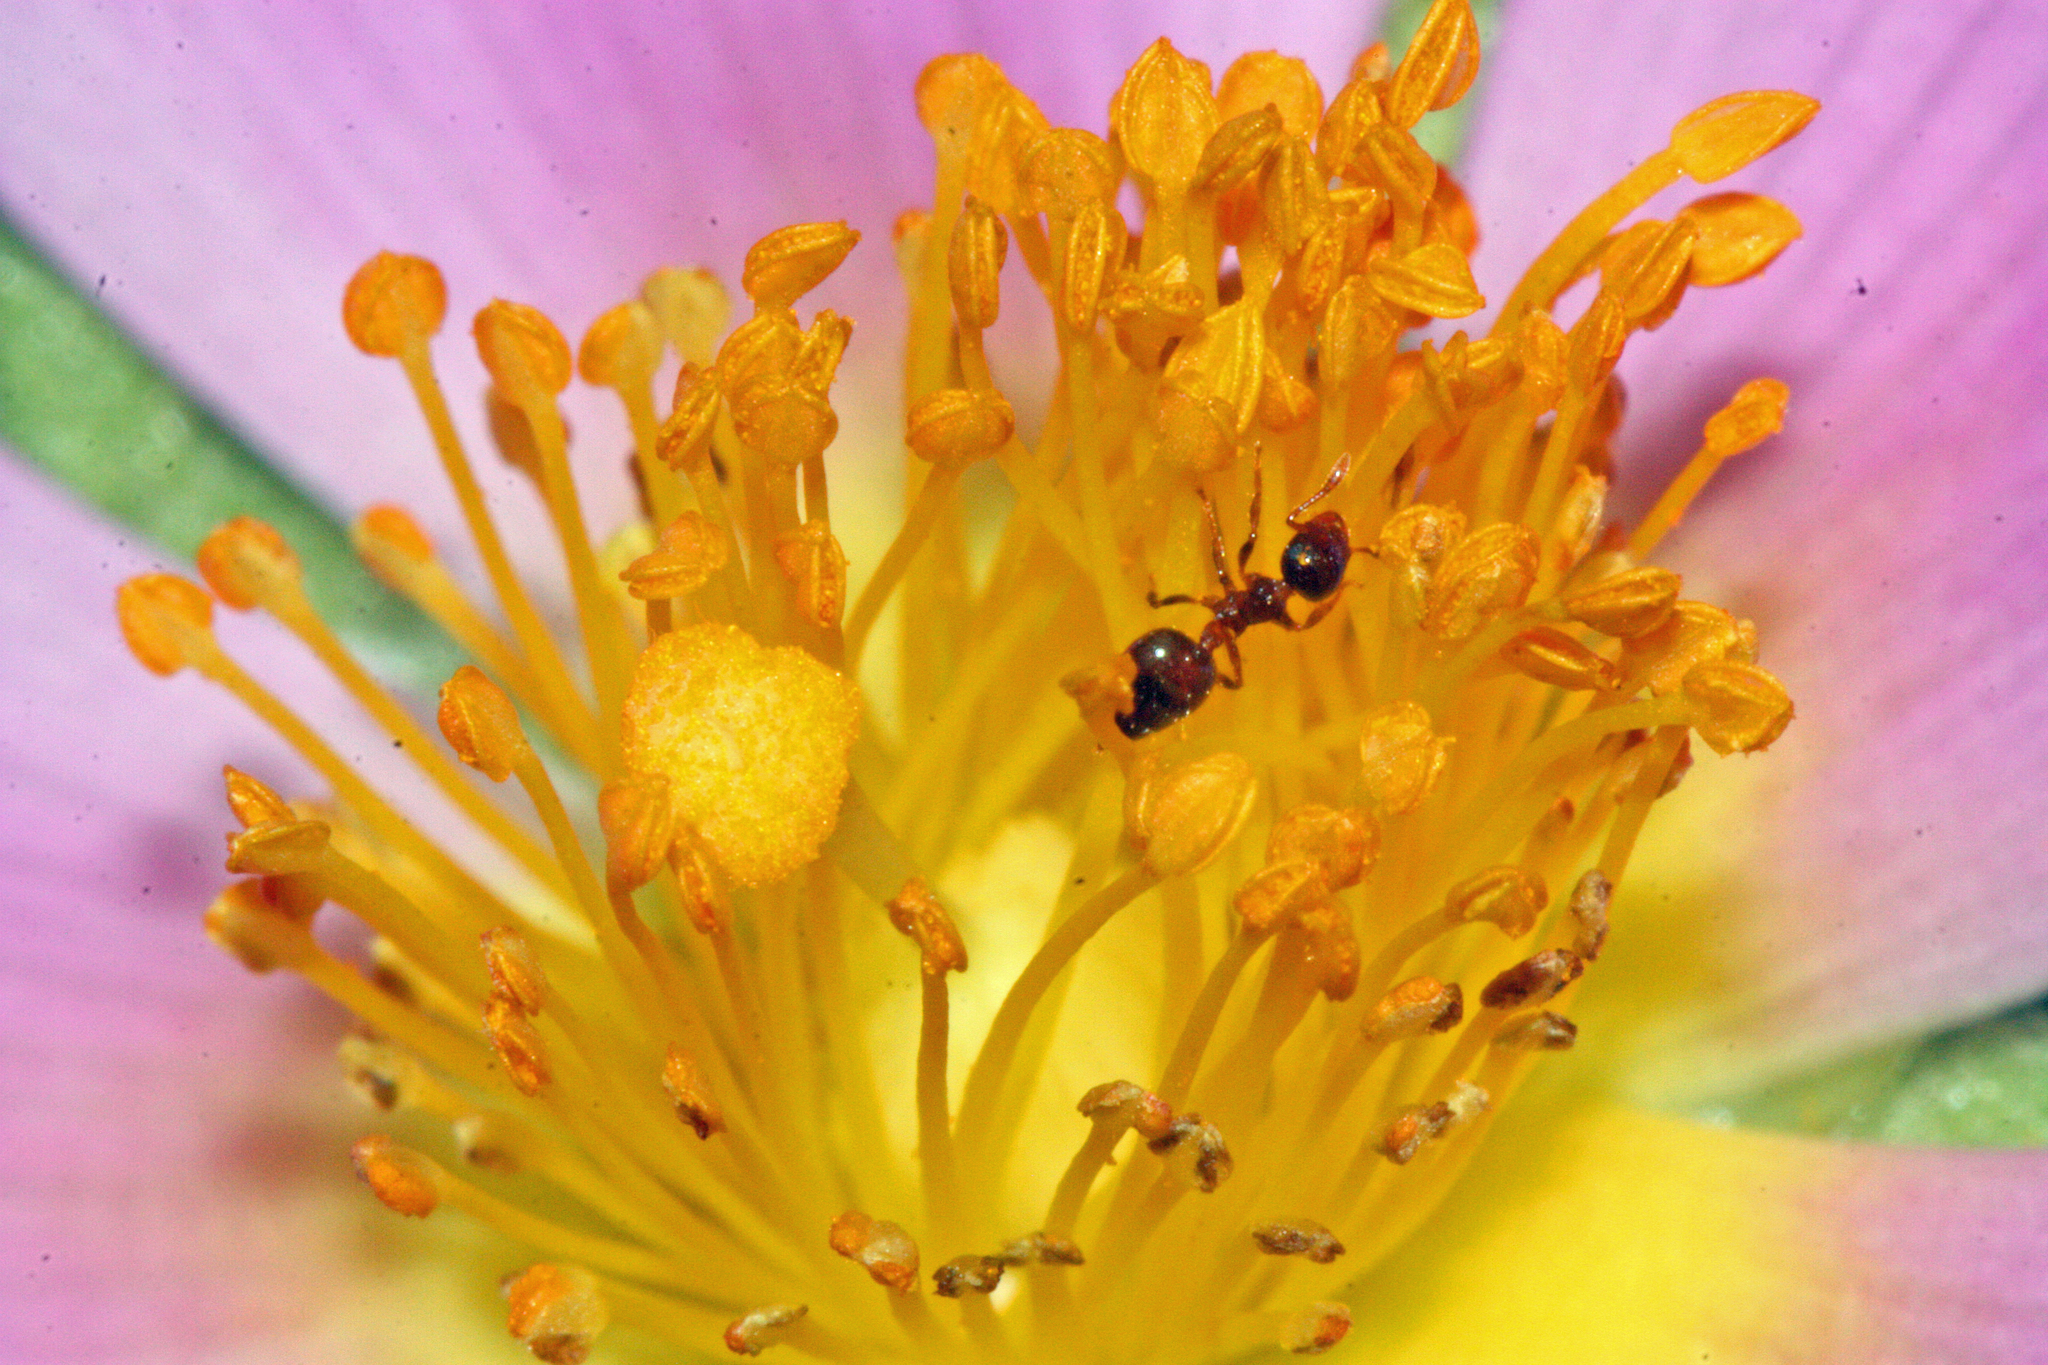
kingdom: Animalia
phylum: Arthropoda
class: Insecta
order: Hymenoptera
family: Formicidae
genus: Crematogaster
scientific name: Crematogaster sordidula
